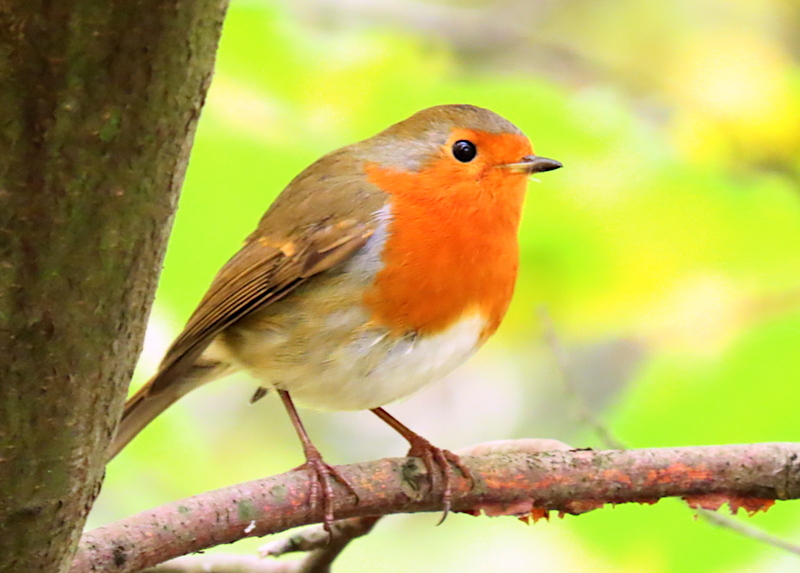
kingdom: Animalia
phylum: Chordata
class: Aves
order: Passeriformes
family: Muscicapidae
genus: Erithacus
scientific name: Erithacus rubecula
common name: European robin
